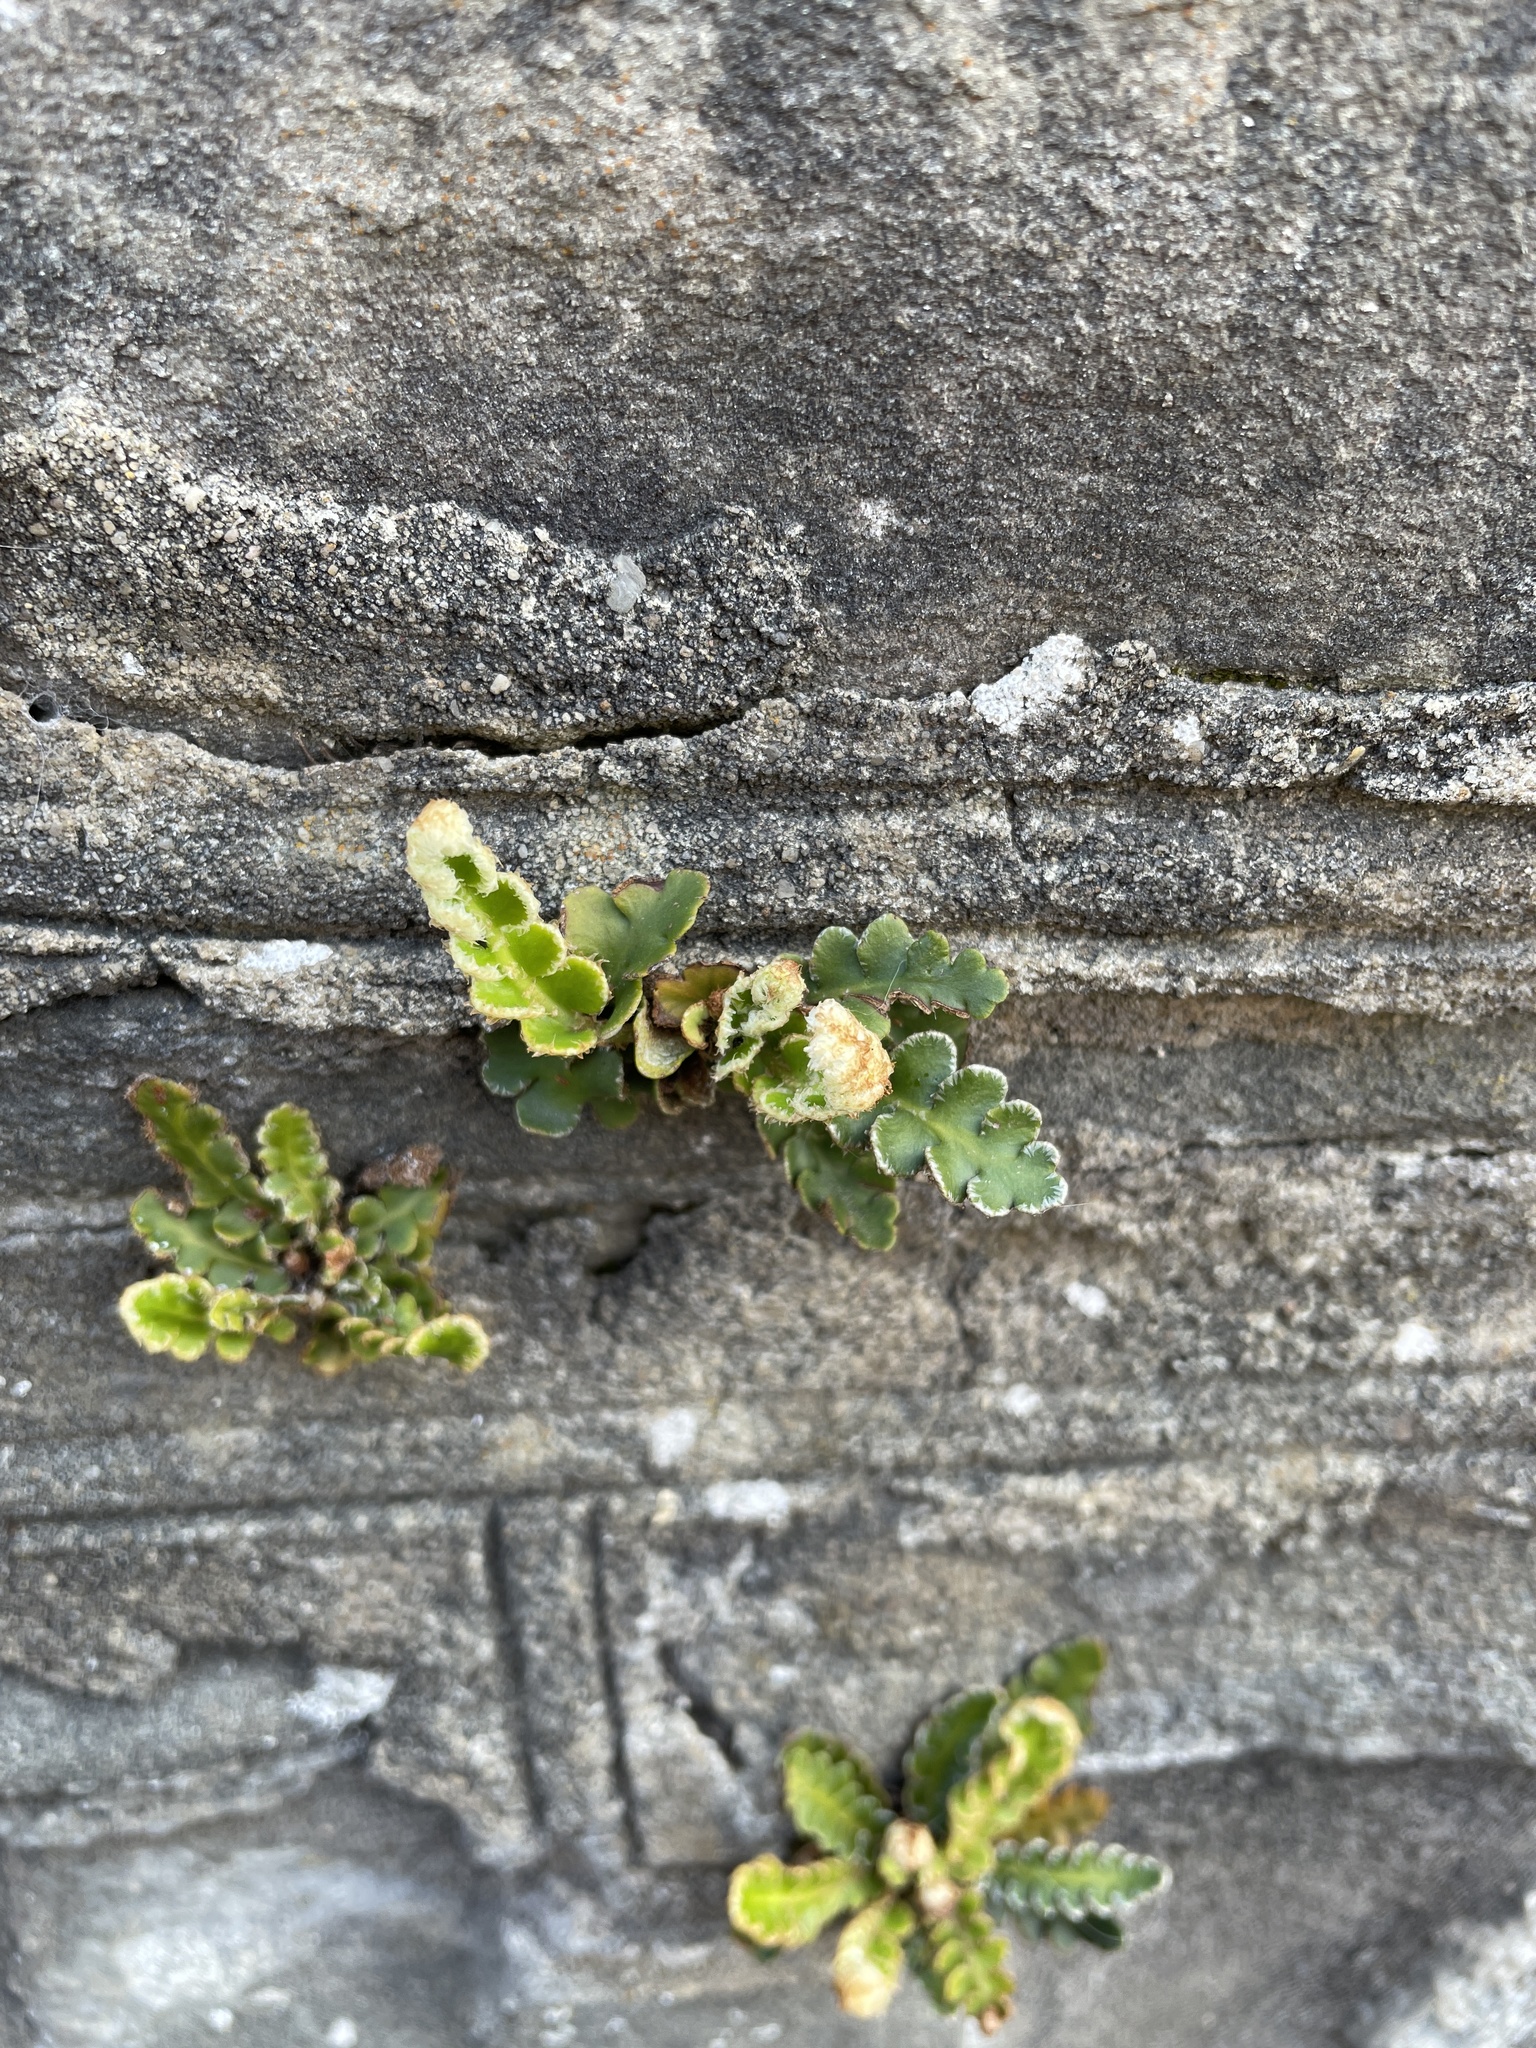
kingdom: Plantae
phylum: Tracheophyta
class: Polypodiopsida
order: Polypodiales
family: Aspleniaceae
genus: Asplenium
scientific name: Asplenium ceterach
